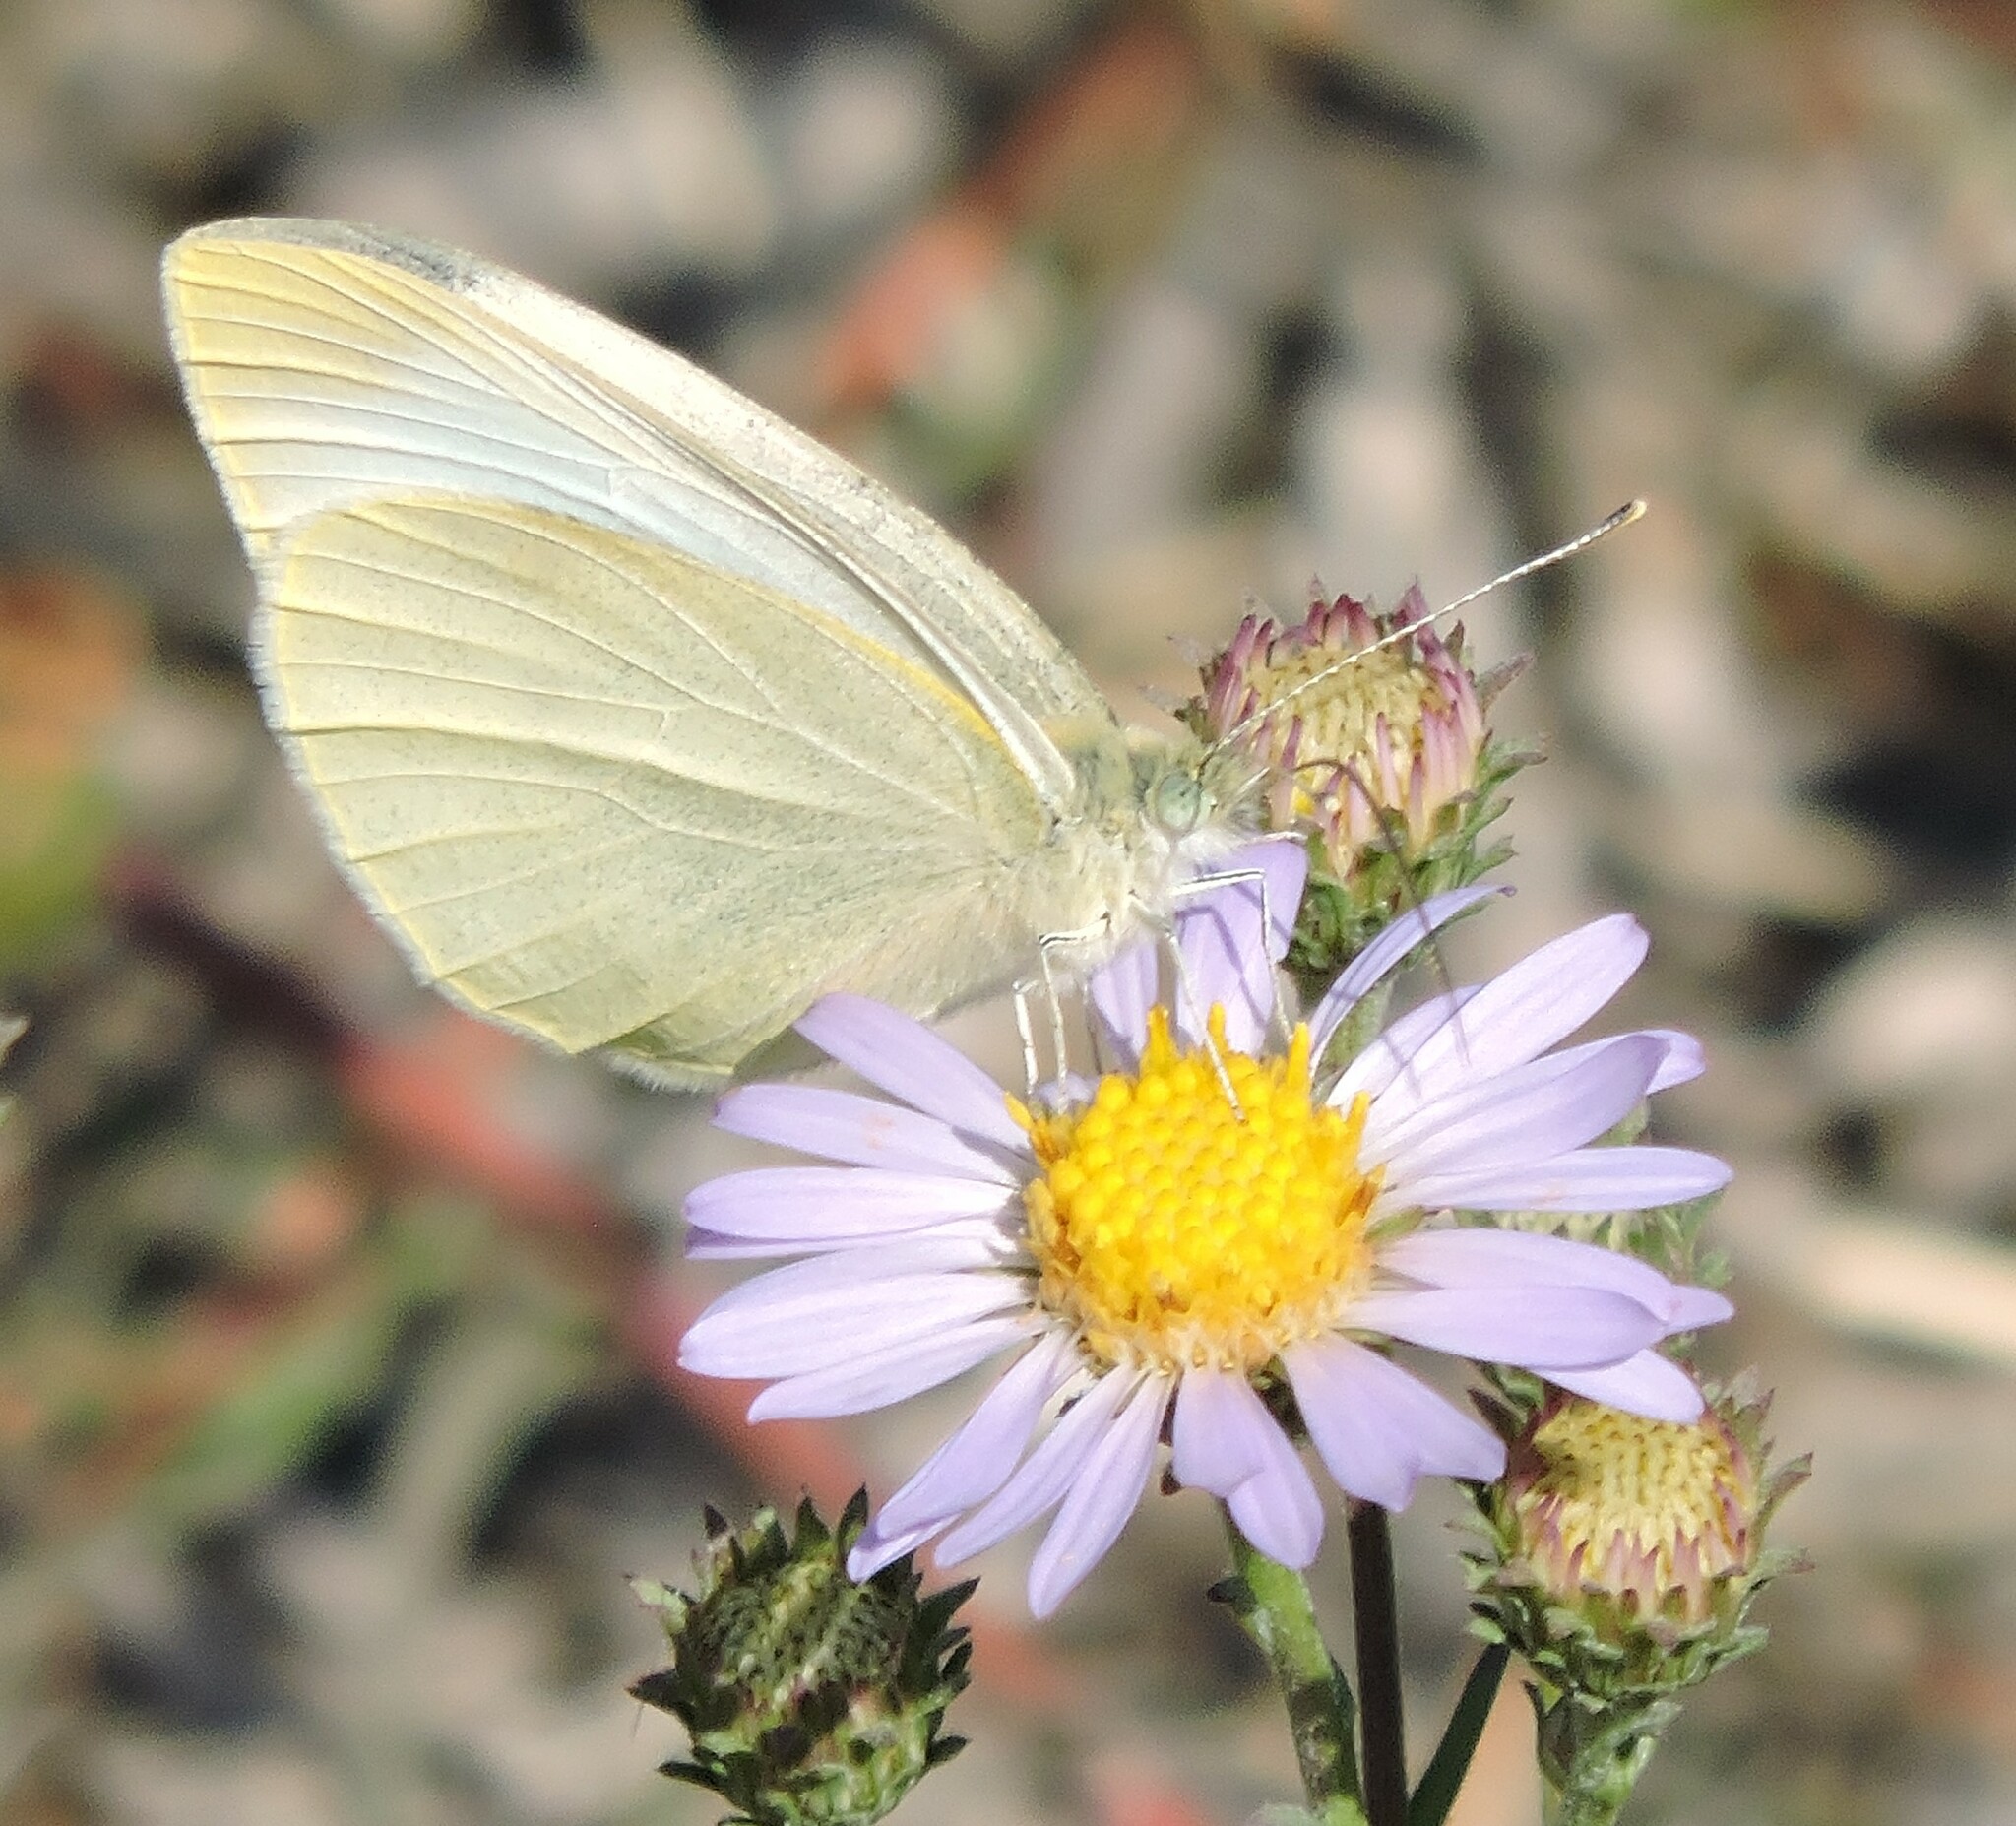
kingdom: Animalia
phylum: Arthropoda
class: Insecta
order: Lepidoptera
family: Pieridae
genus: Pieris
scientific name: Pieris rapae
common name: Small white
